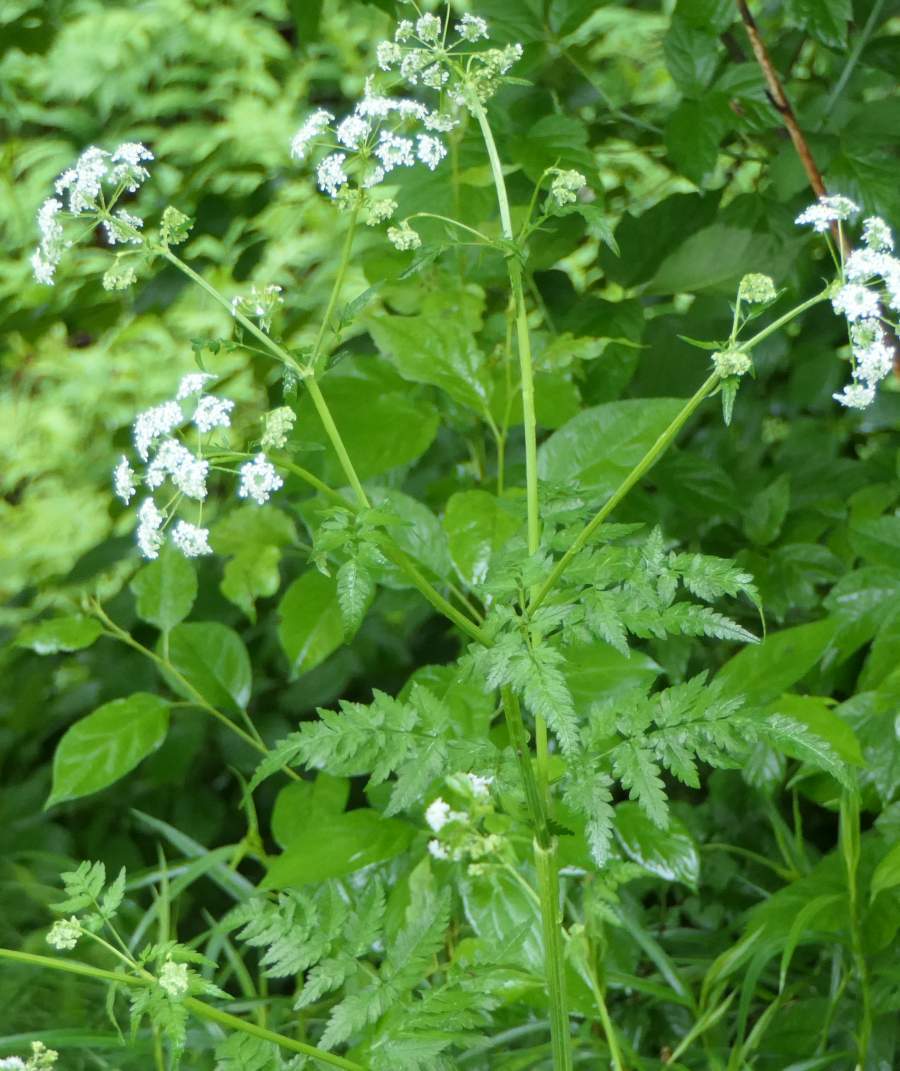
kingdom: Plantae
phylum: Tracheophyta
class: Magnoliopsida
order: Apiales
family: Apiaceae
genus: Anthriscus
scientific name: Anthriscus sylvestris
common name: Cow parsley
